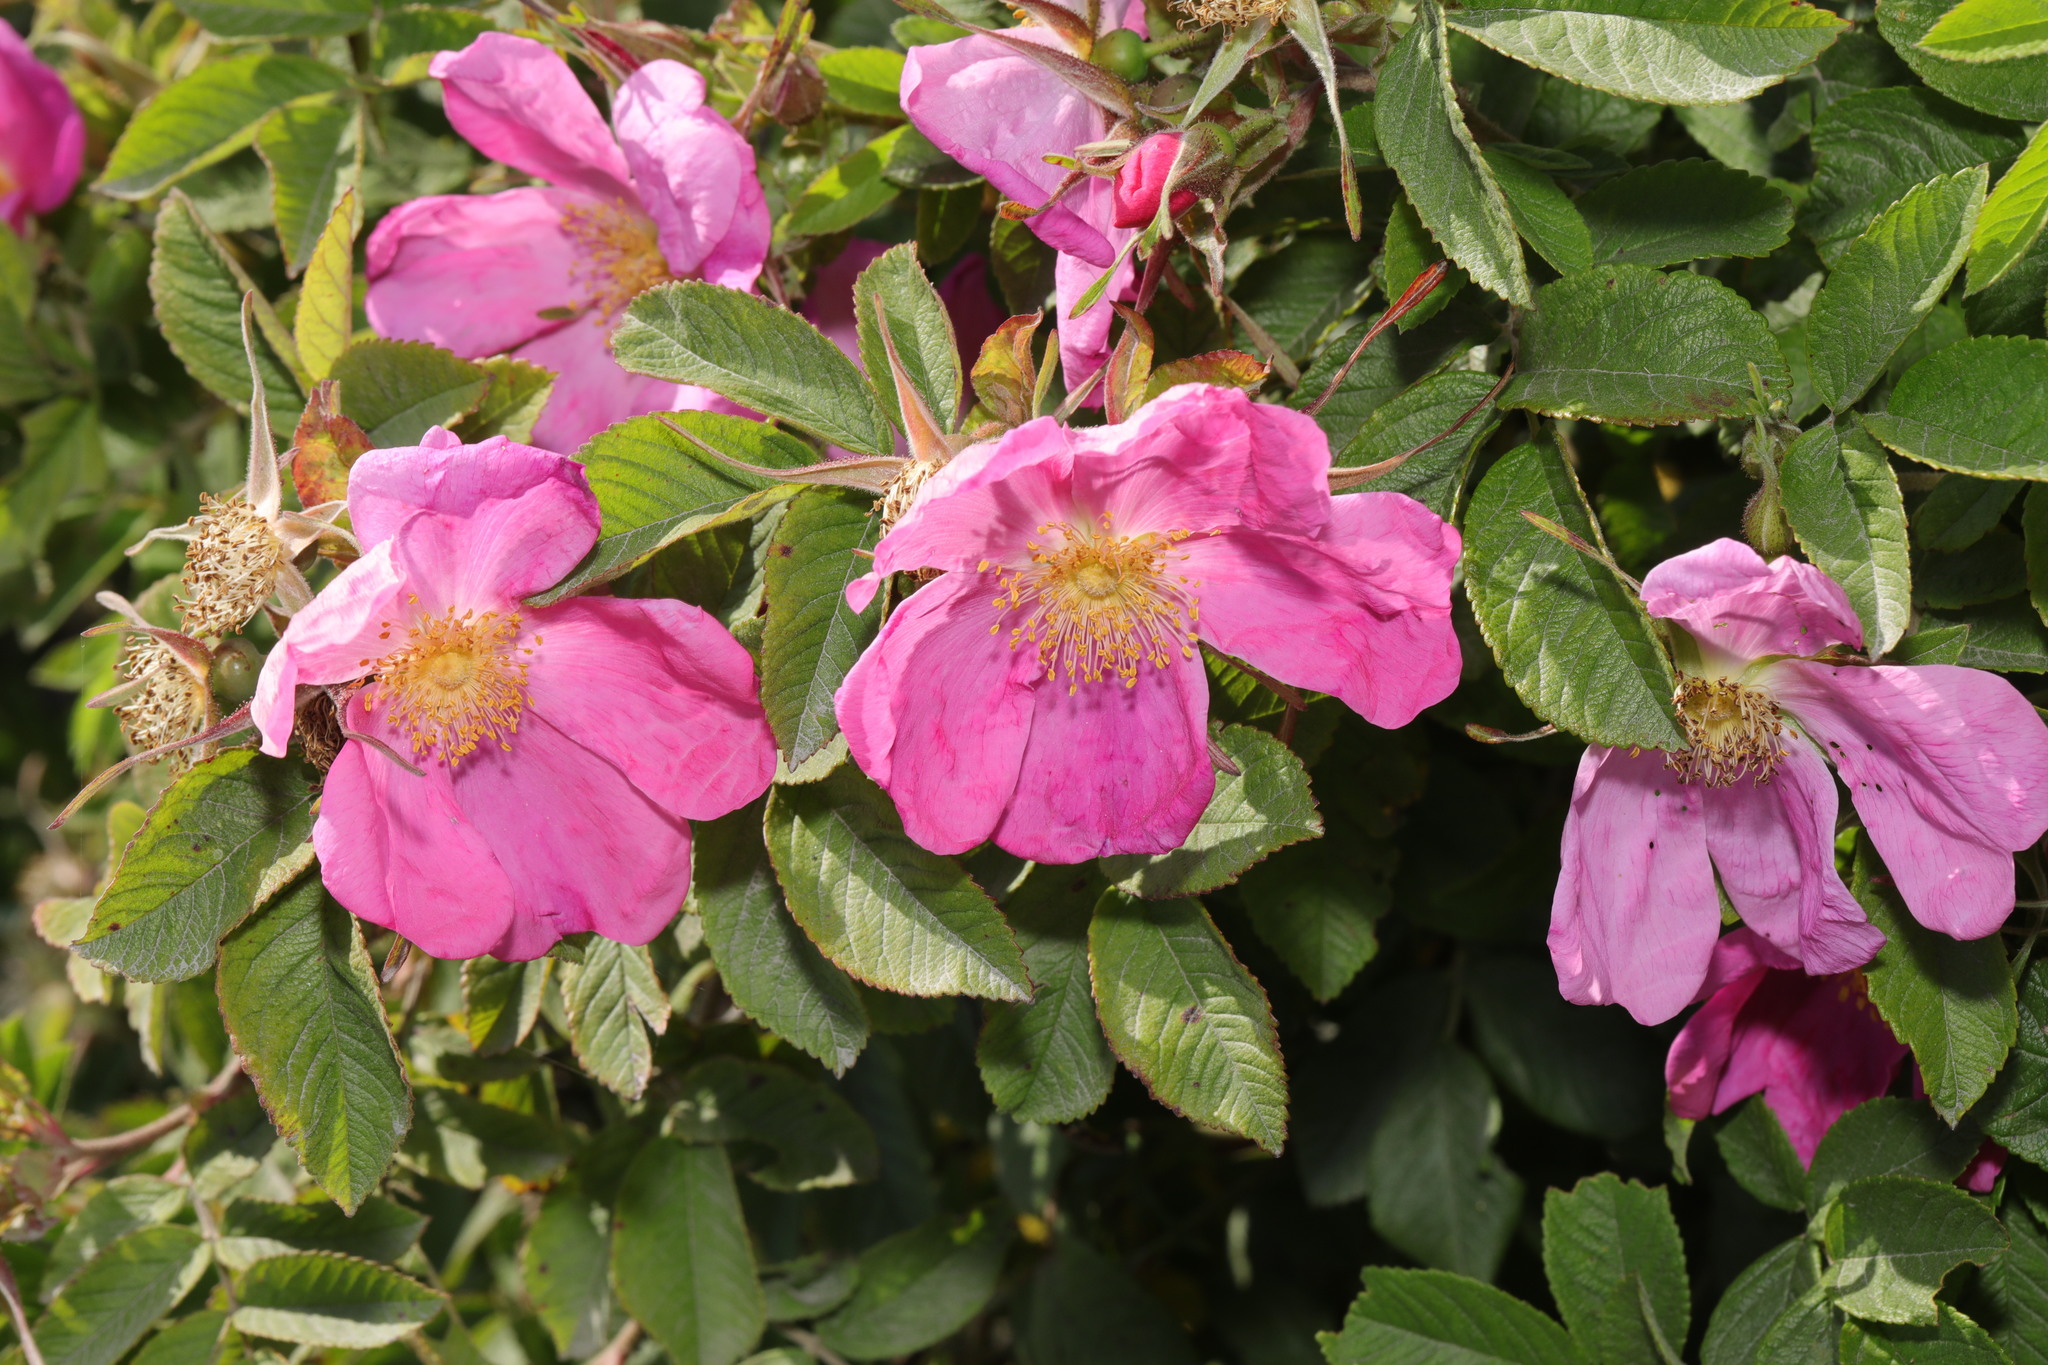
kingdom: Plantae
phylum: Tracheophyta
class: Magnoliopsida
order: Rosales
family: Rosaceae
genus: Rosa
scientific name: Rosa rugosa
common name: Japanese rose
